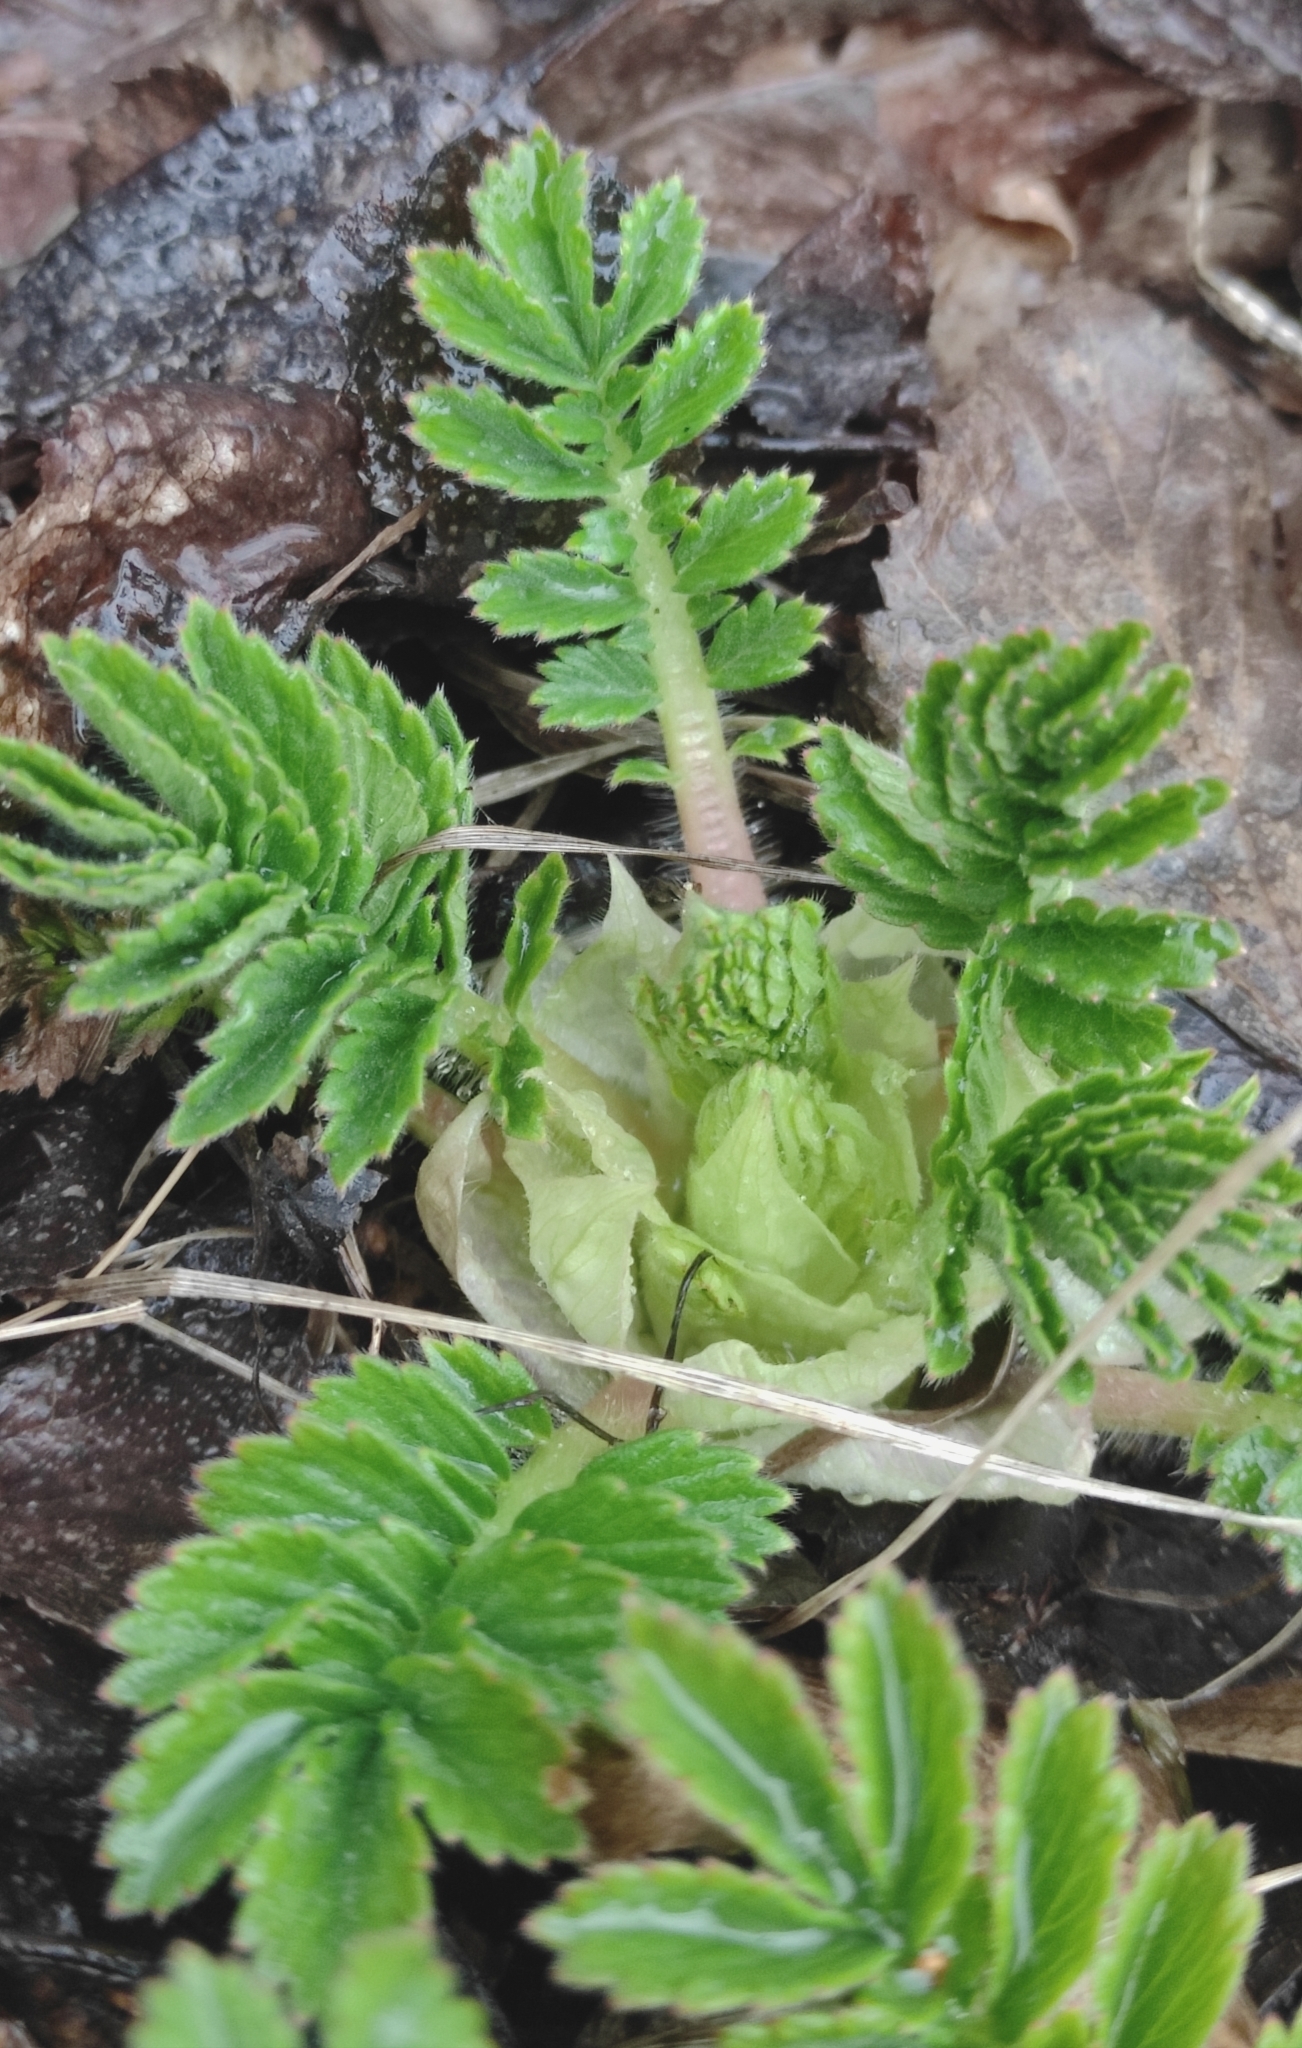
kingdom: Plantae
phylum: Tracheophyta
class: Magnoliopsida
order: Rosales
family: Rosaceae
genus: Agrimonia
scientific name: Agrimonia pilosa
